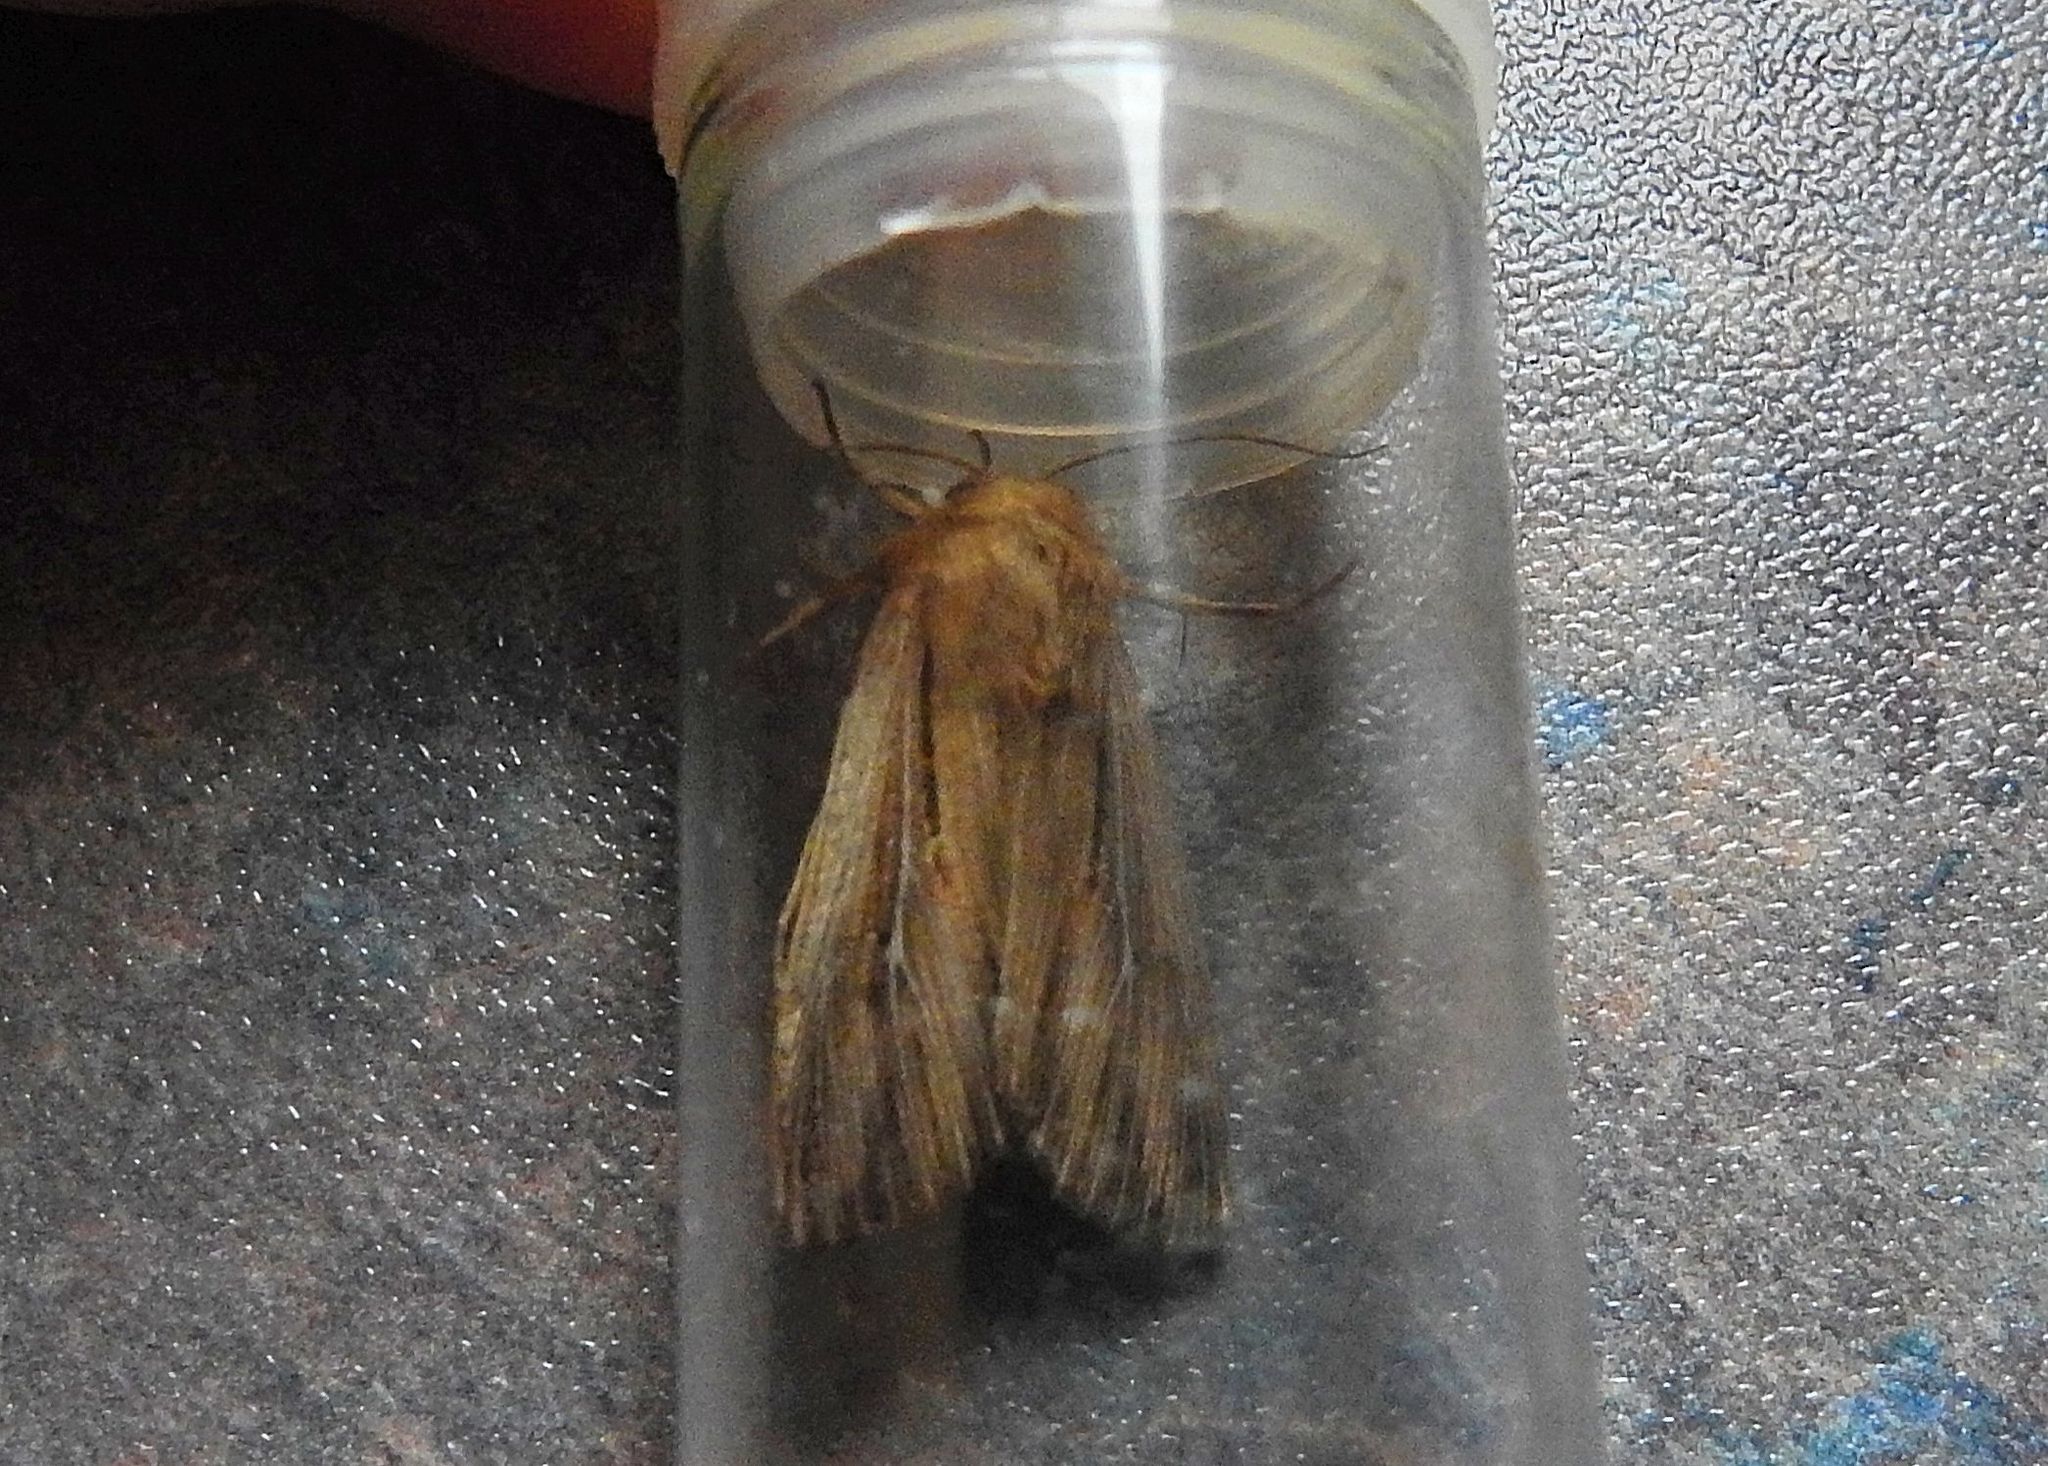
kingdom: Animalia
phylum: Arthropoda
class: Insecta
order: Lepidoptera
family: Noctuidae
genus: Leucania
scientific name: Leucania comma
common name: Shoulder-striped wainscot
